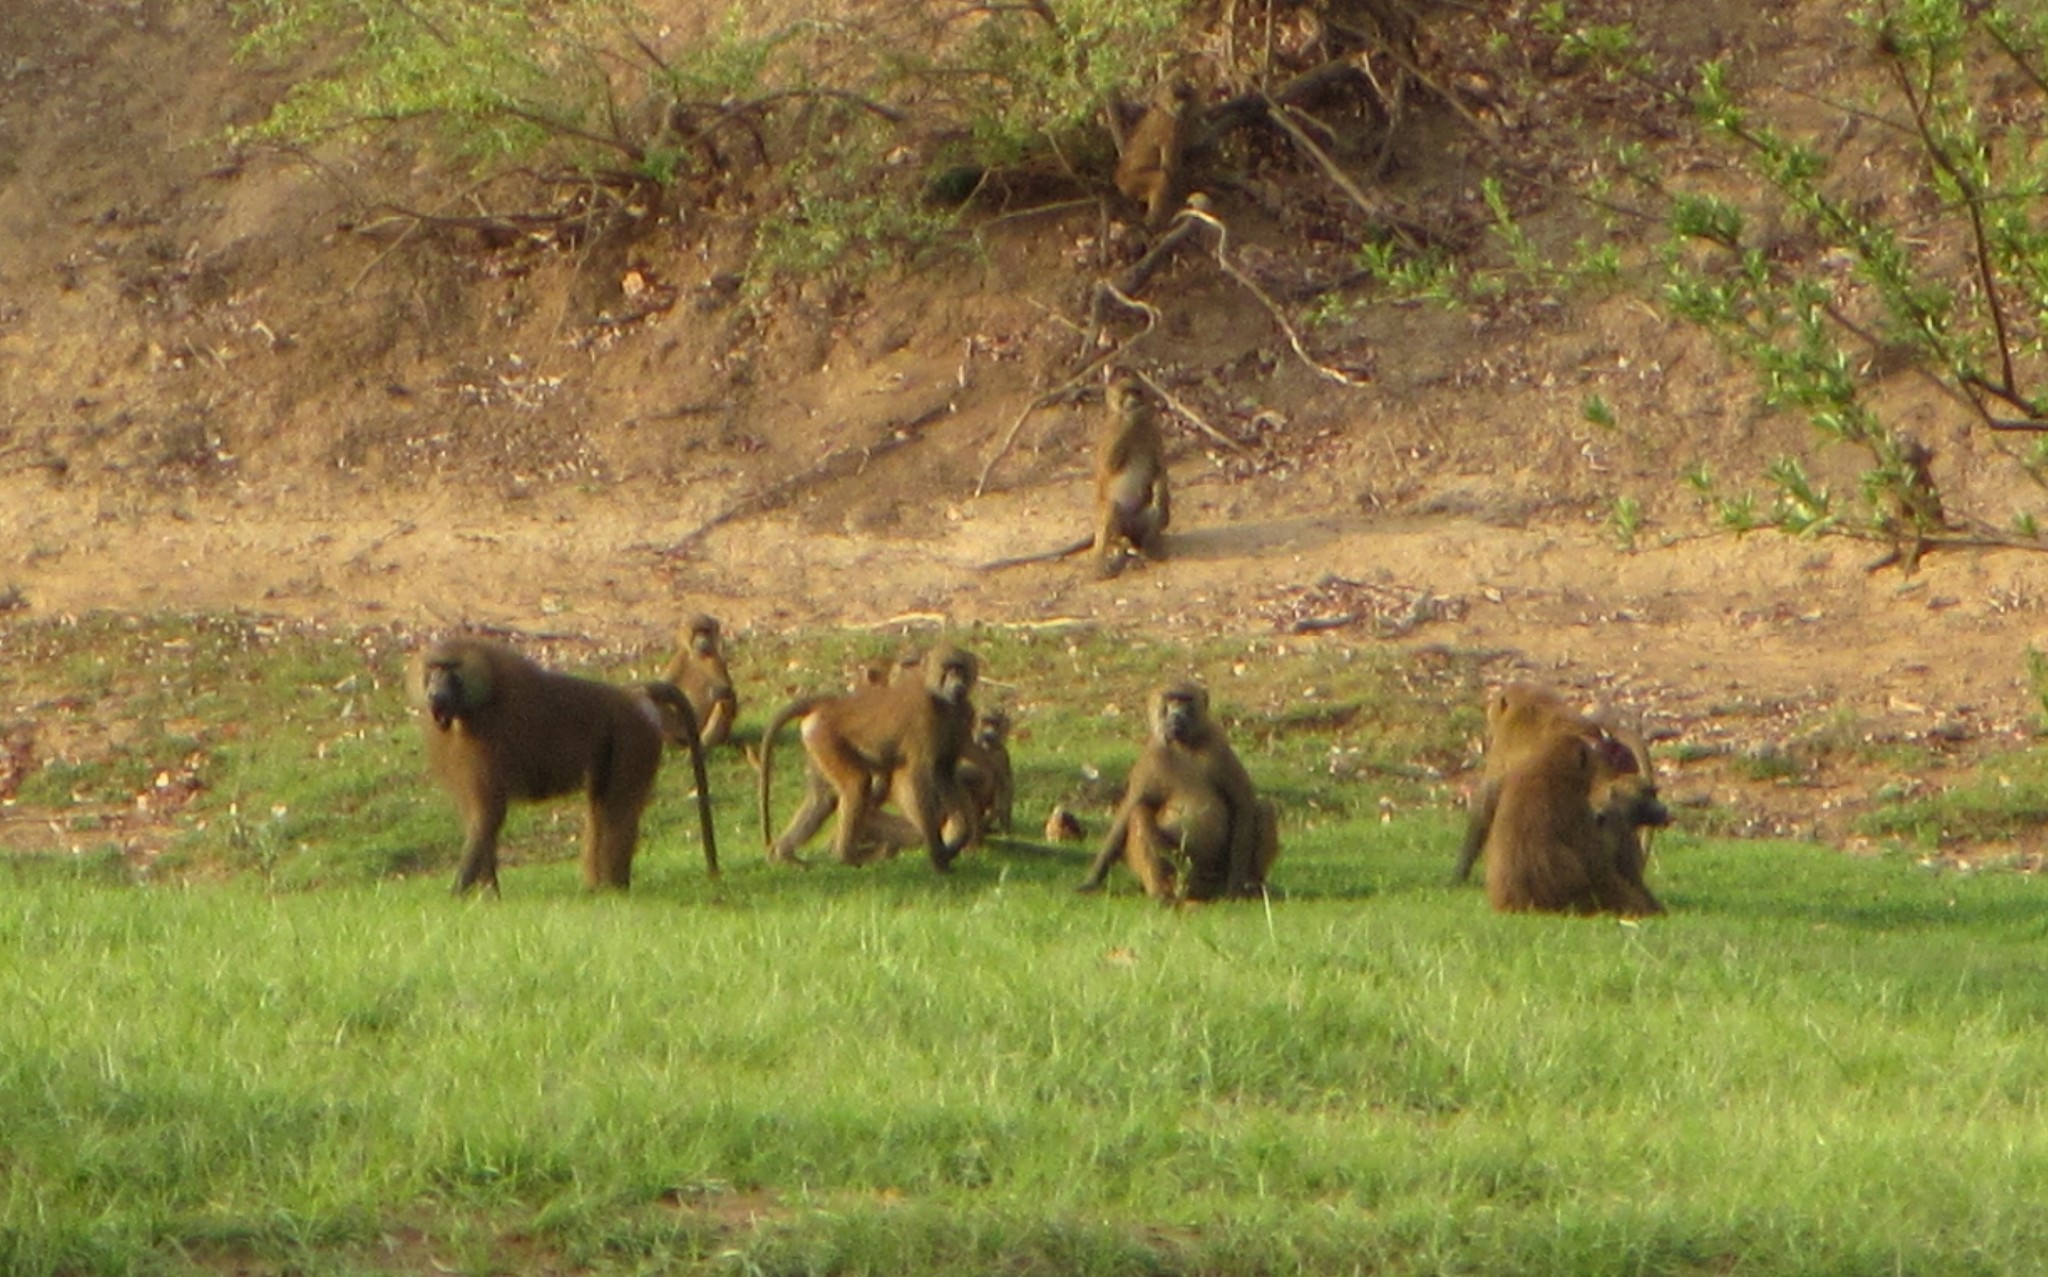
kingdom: Animalia
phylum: Chordata
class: Mammalia
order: Primates
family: Cercopithecidae
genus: Papio
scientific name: Papio papio
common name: Guinea baboon
